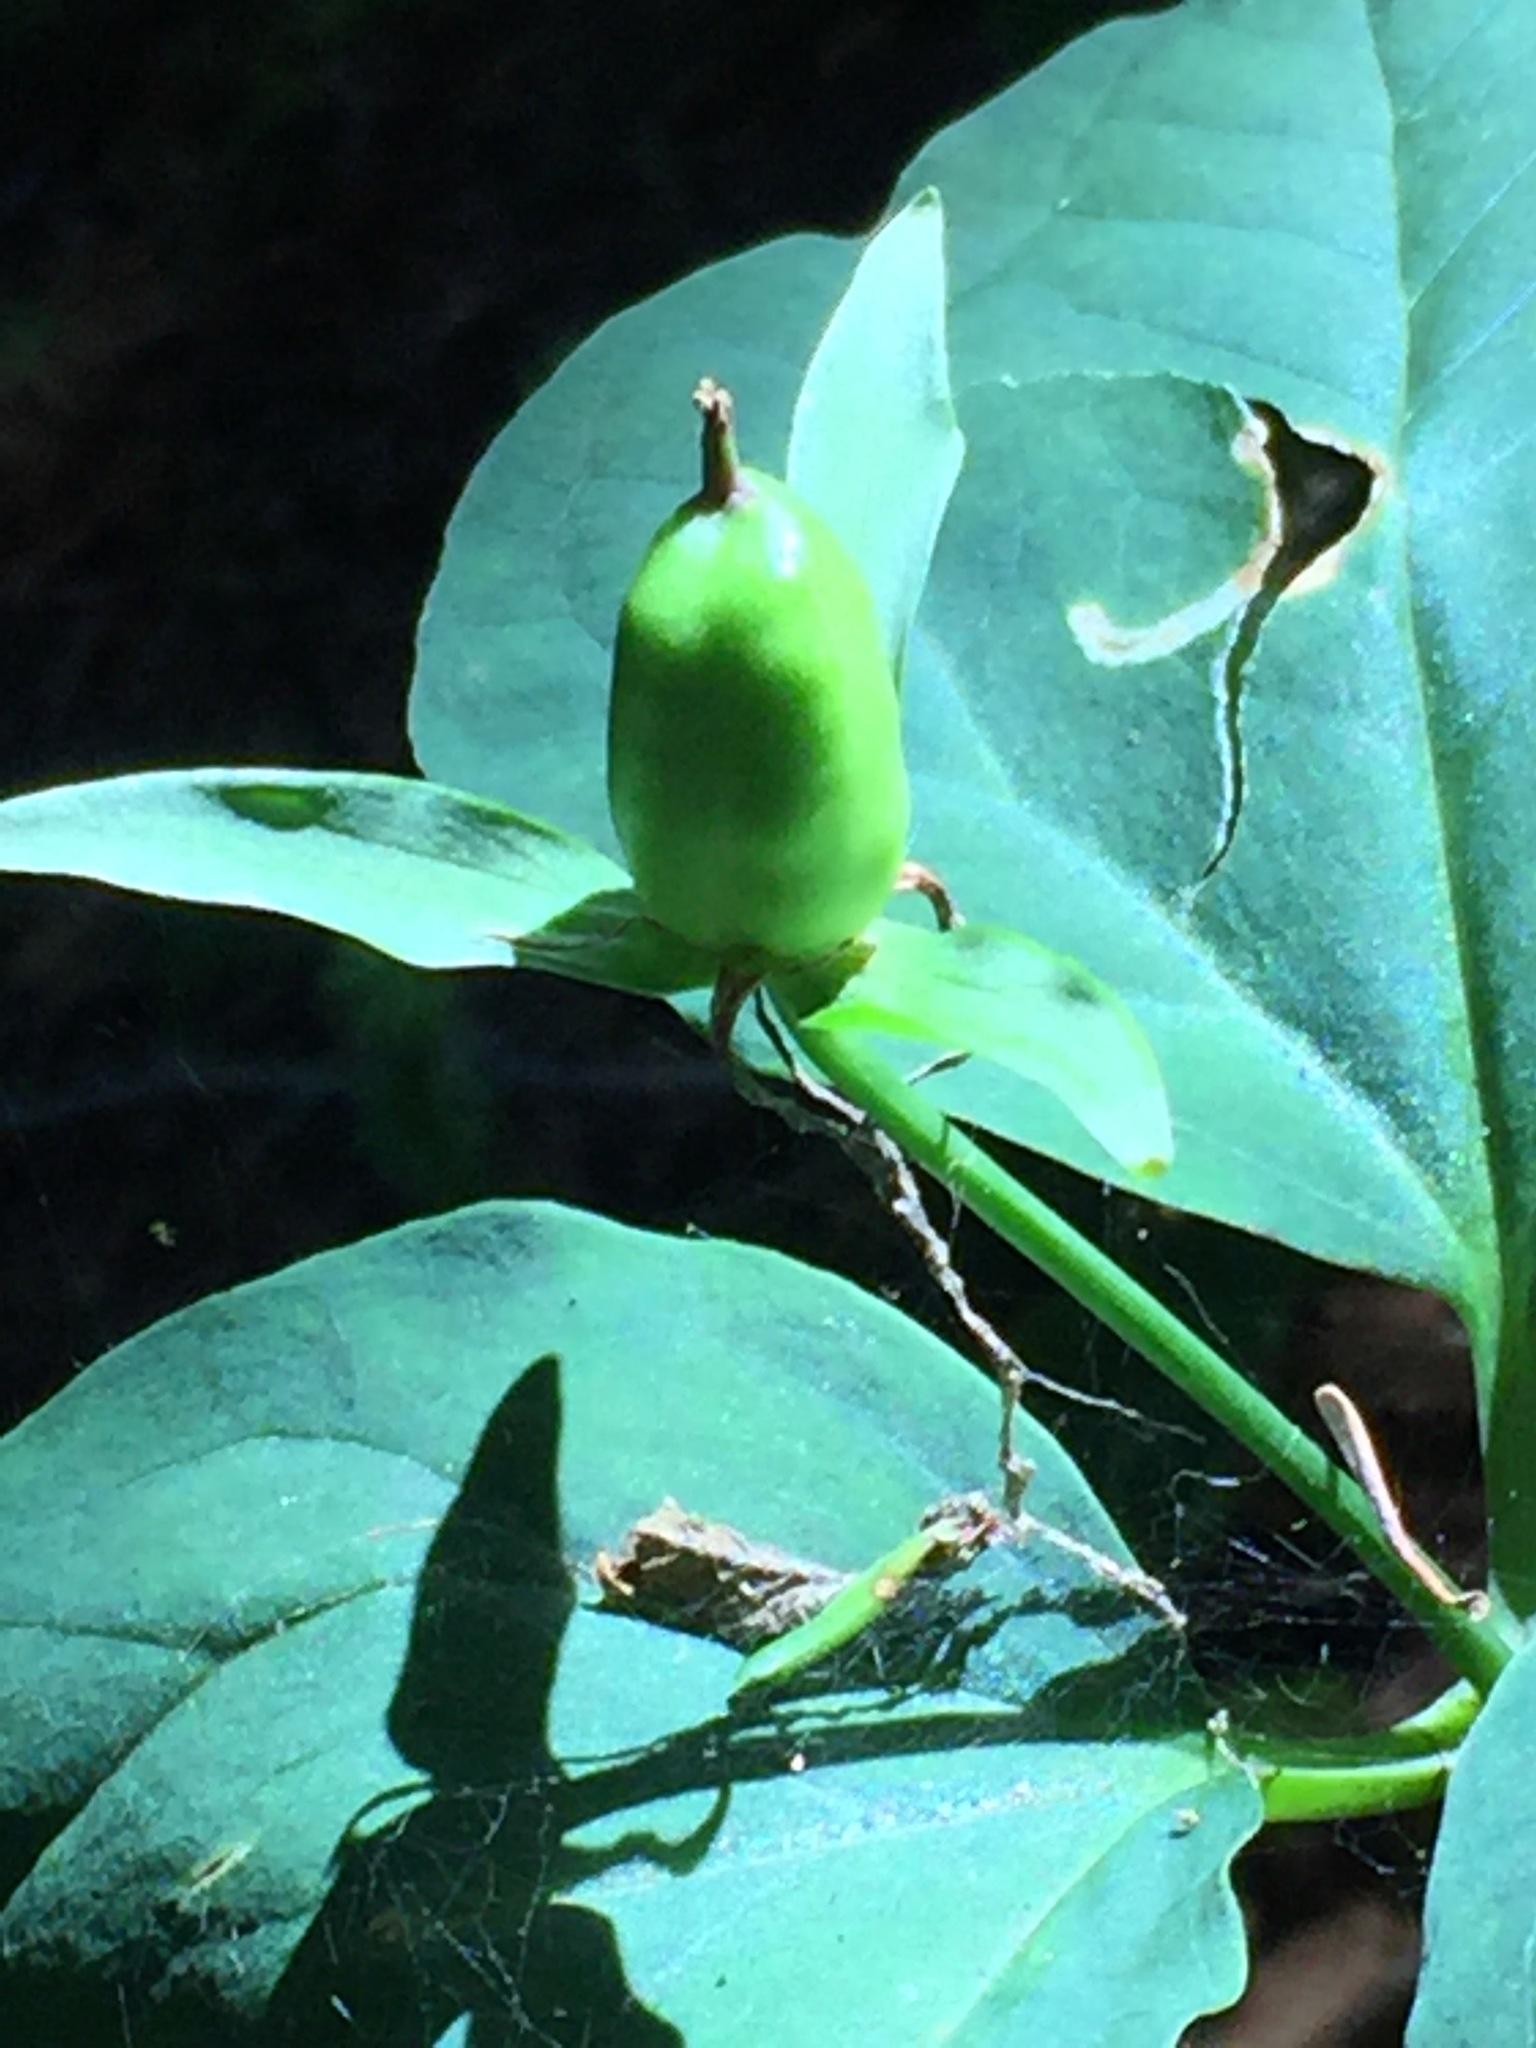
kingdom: Plantae
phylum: Tracheophyta
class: Liliopsida
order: Liliales
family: Melanthiaceae
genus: Trillium
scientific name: Trillium undulatum
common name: Paint trillium
